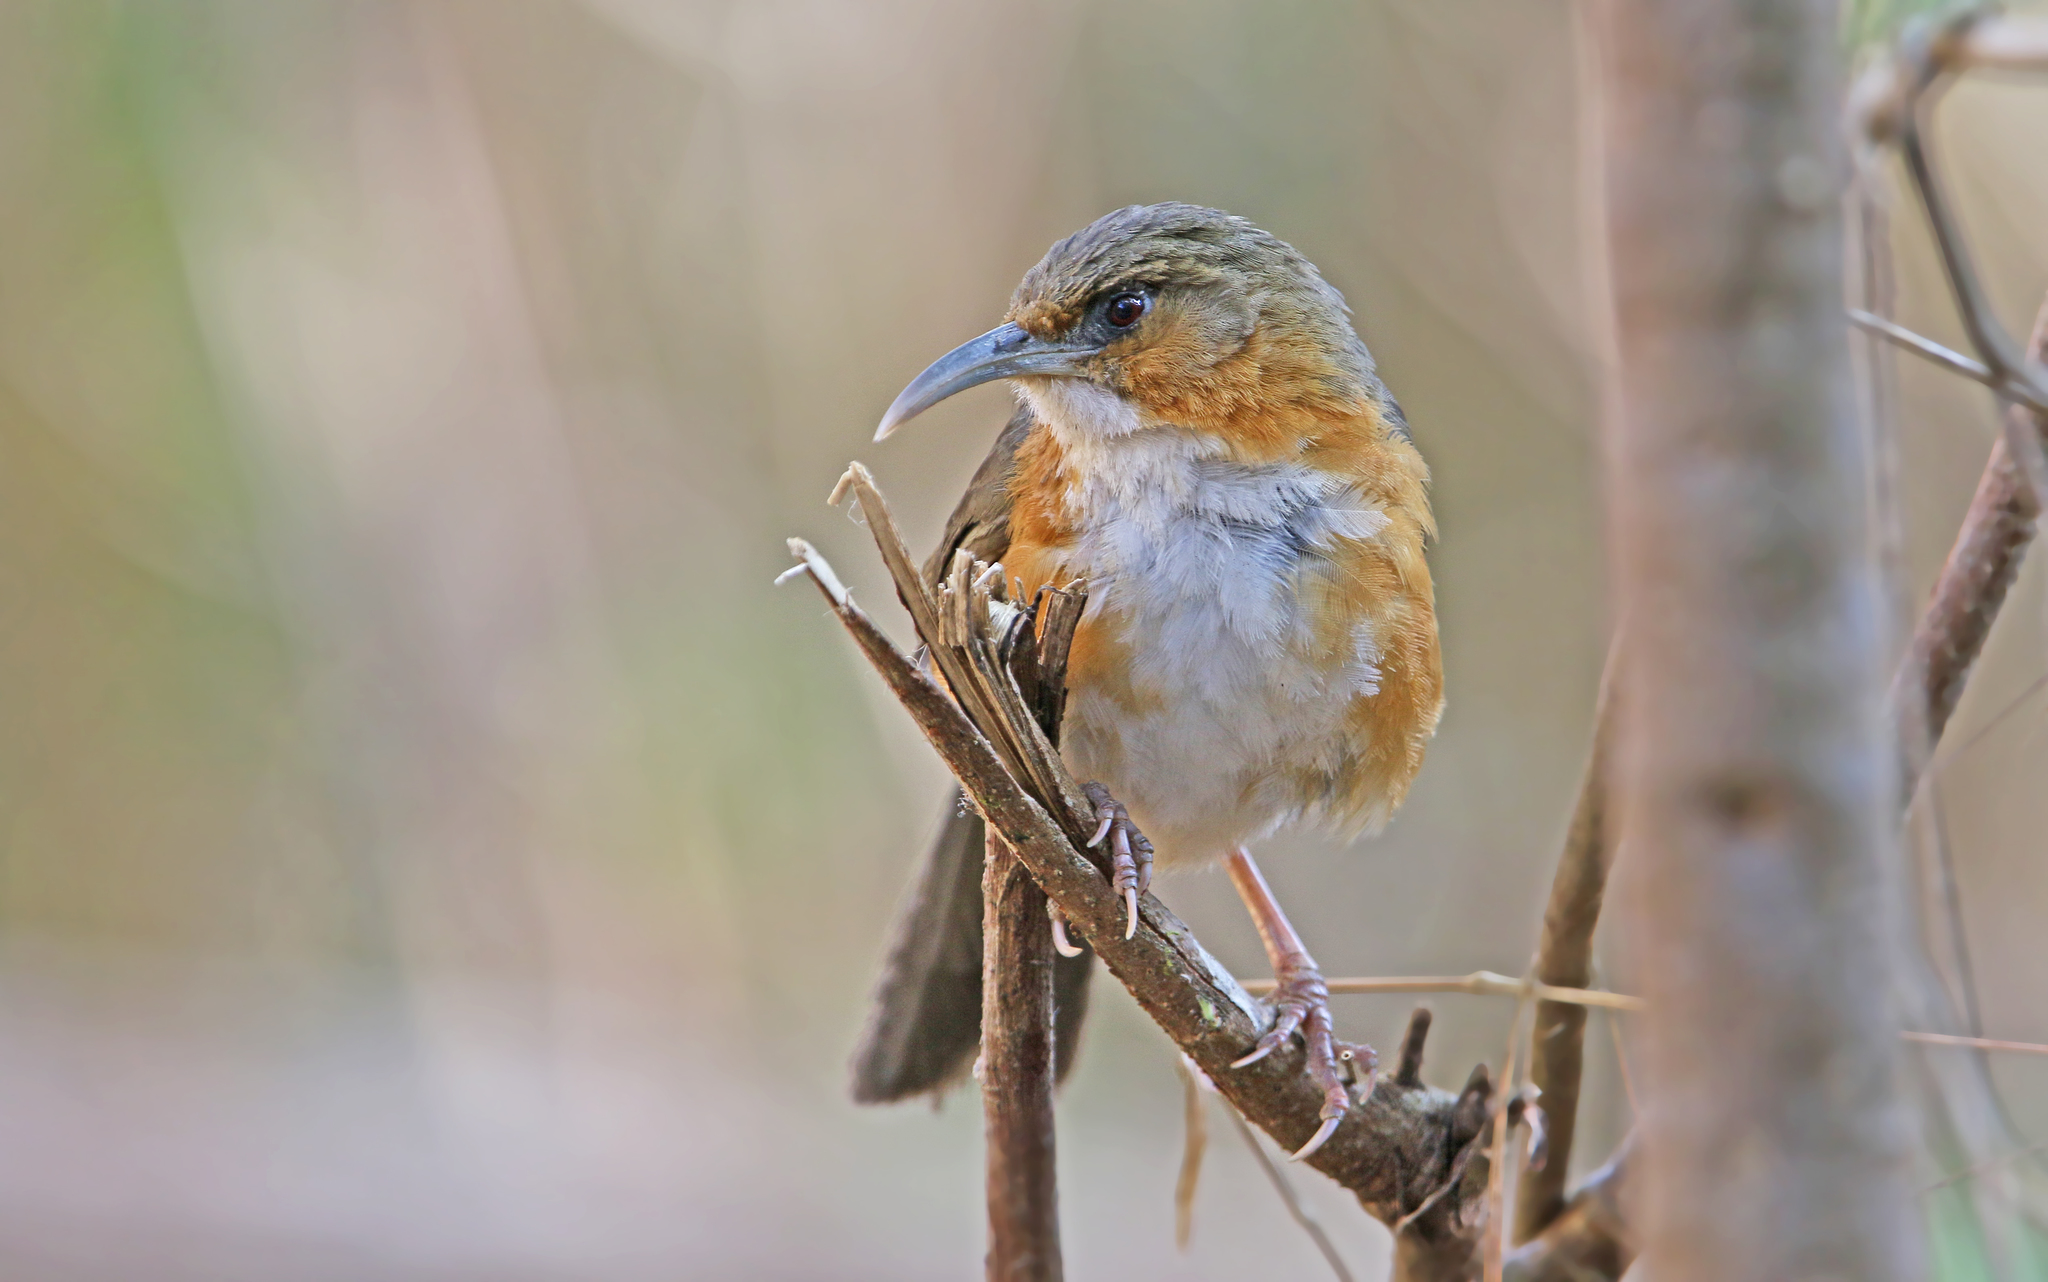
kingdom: Animalia
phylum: Chordata
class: Aves
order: Passeriformes
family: Timaliidae
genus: Pomatorhinus
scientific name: Pomatorhinus erythrogenys
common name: Rusty-cheeked scimitar babbler
